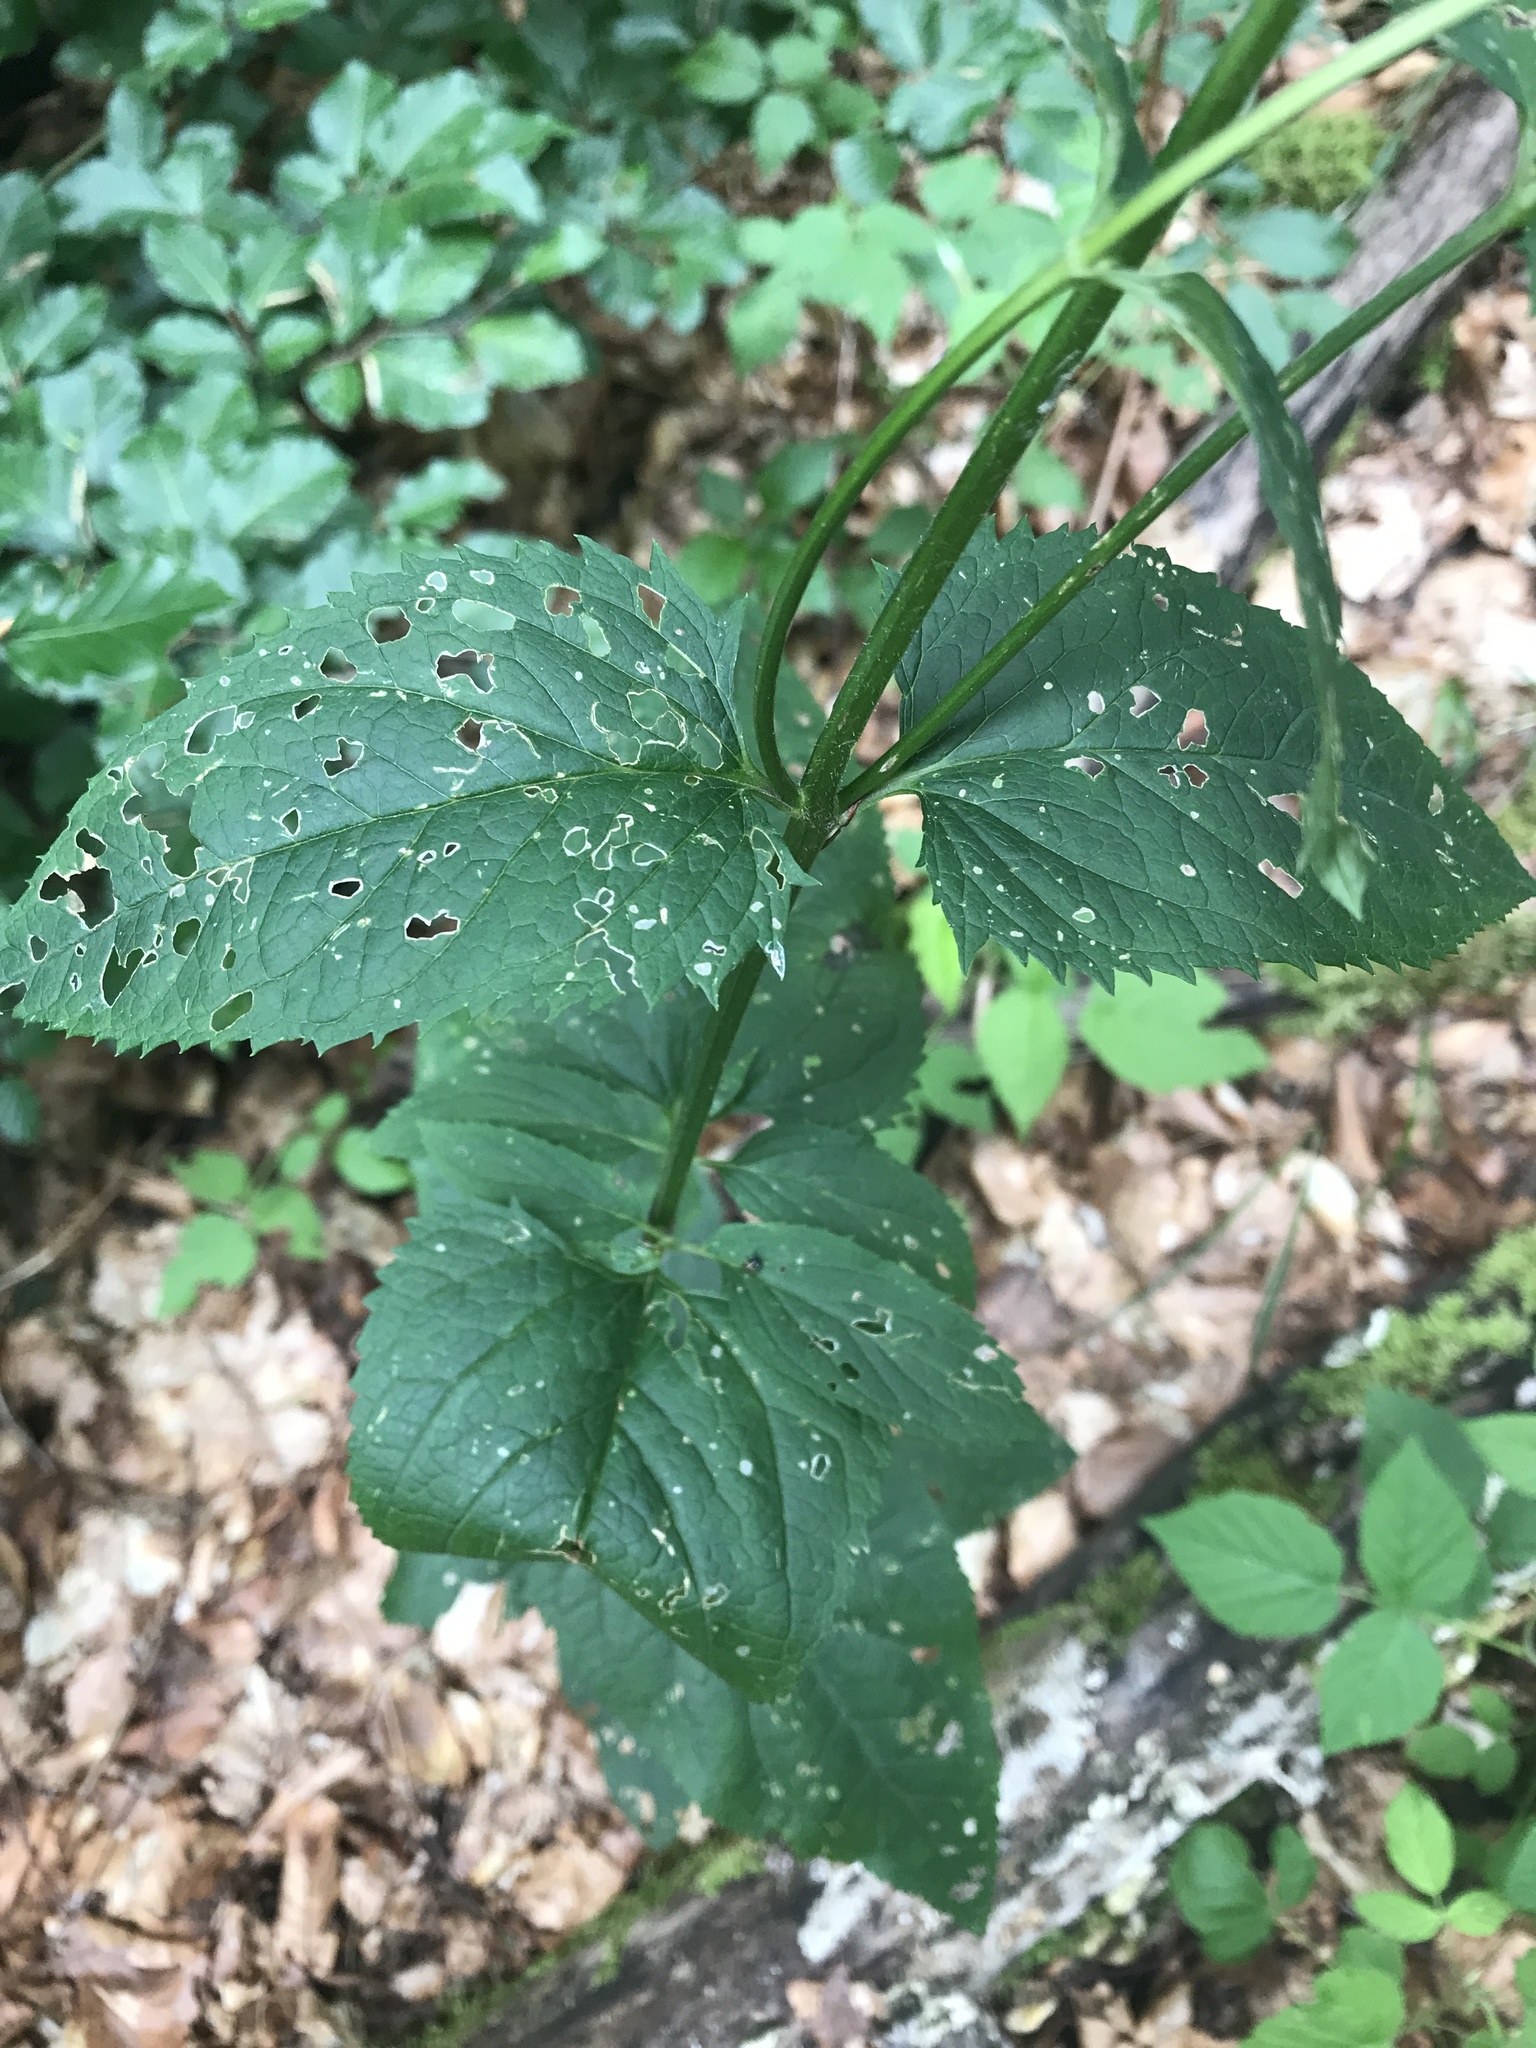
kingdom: Plantae
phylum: Tracheophyta
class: Magnoliopsida
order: Lamiales
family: Scrophulariaceae
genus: Scrophularia
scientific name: Scrophularia nodosa
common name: Common figwort
